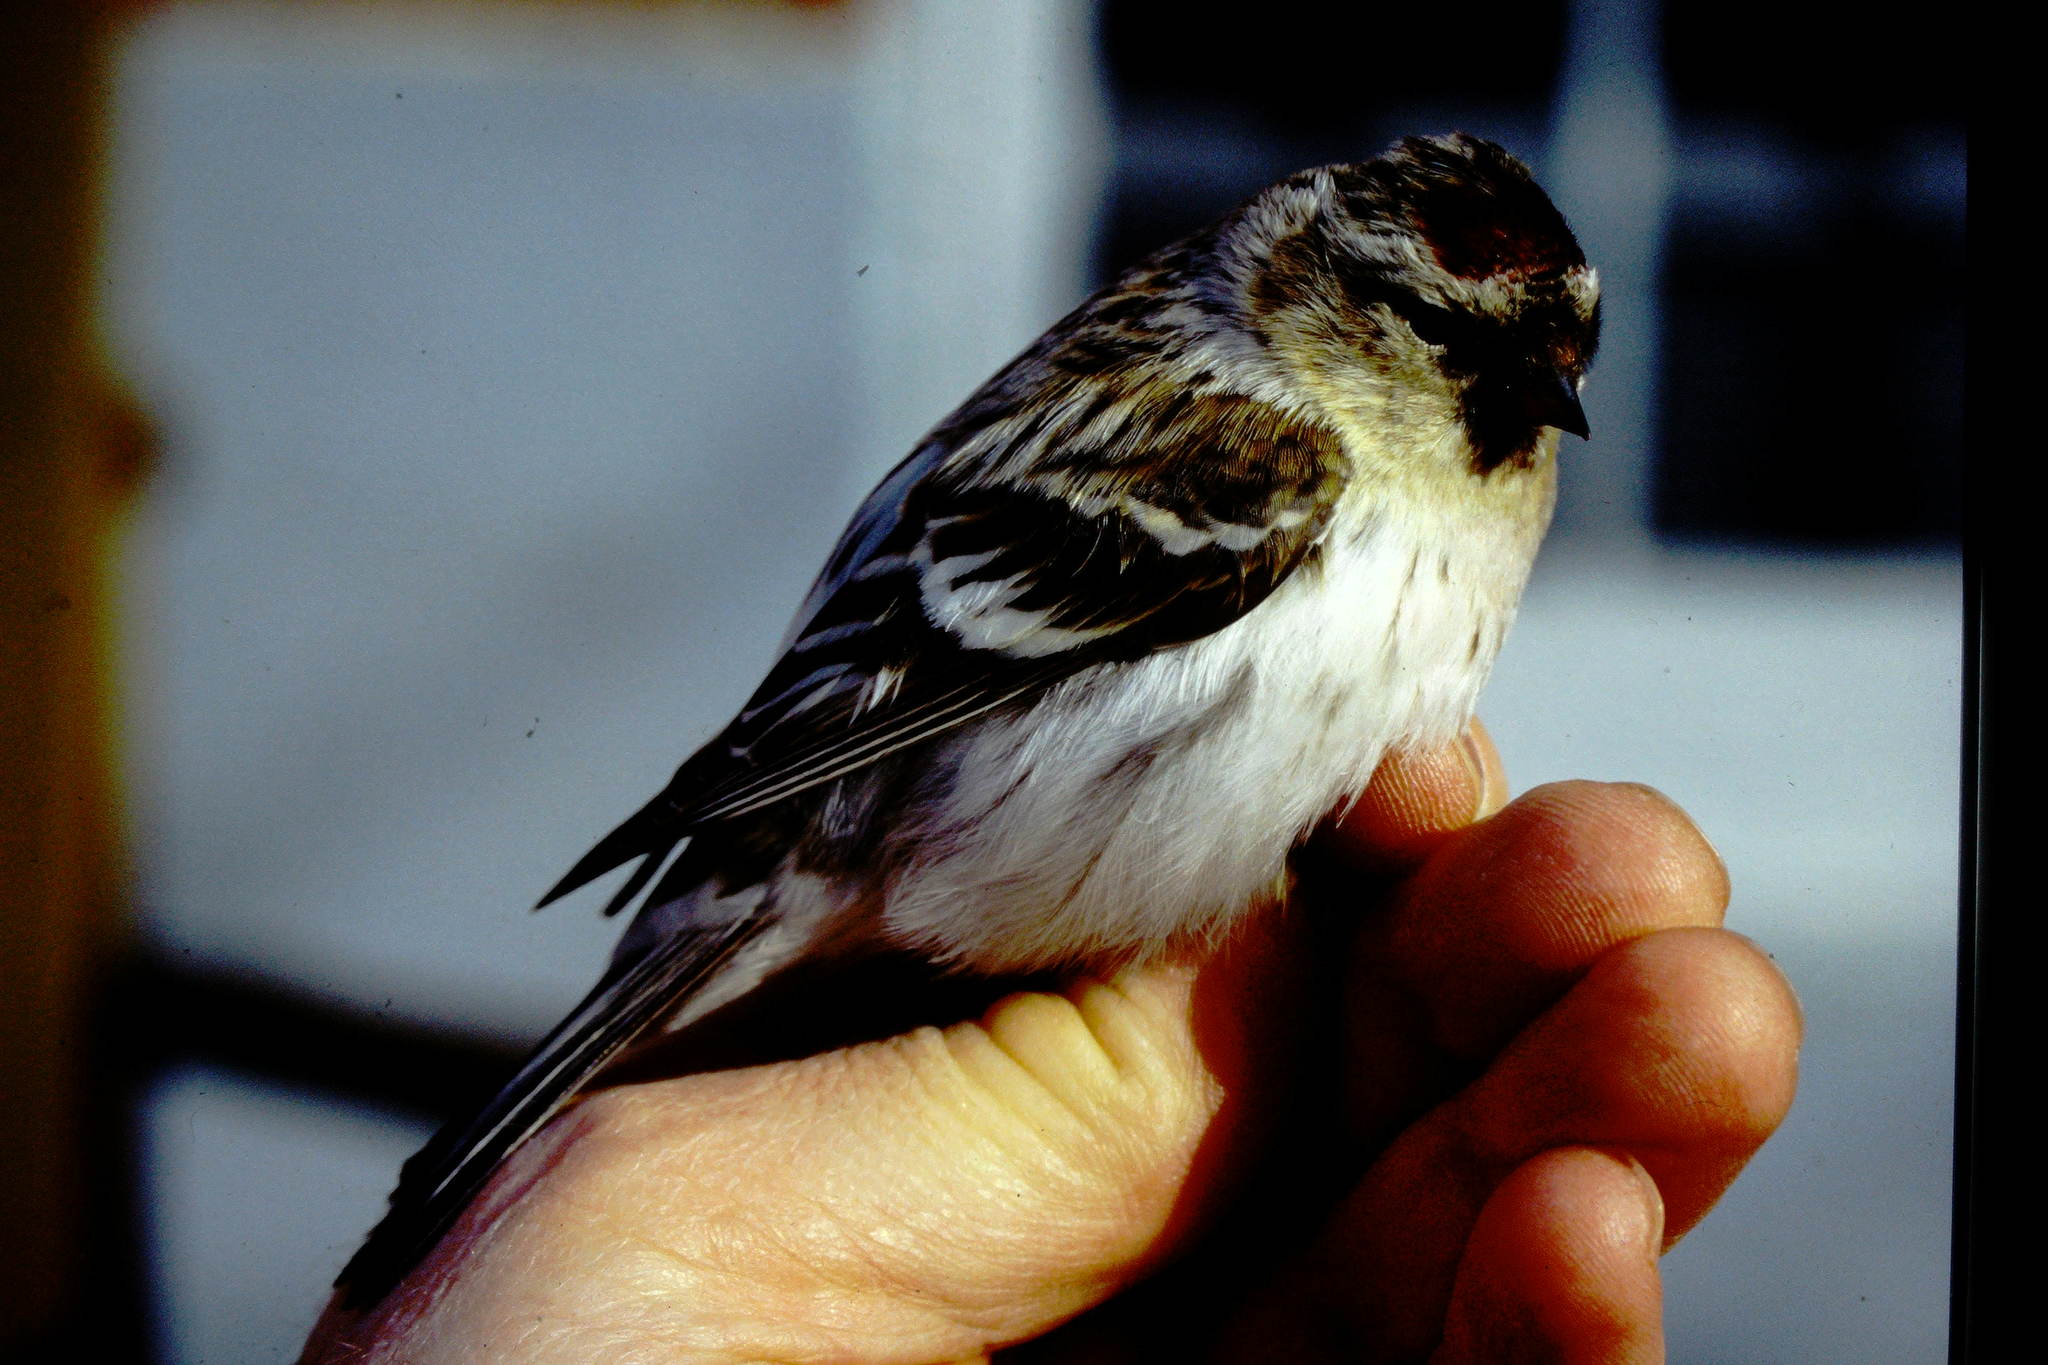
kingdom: Animalia
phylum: Chordata
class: Aves
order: Passeriformes
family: Fringillidae
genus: Acanthis
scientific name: Acanthis hornemanni
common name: Arctic redpoll
